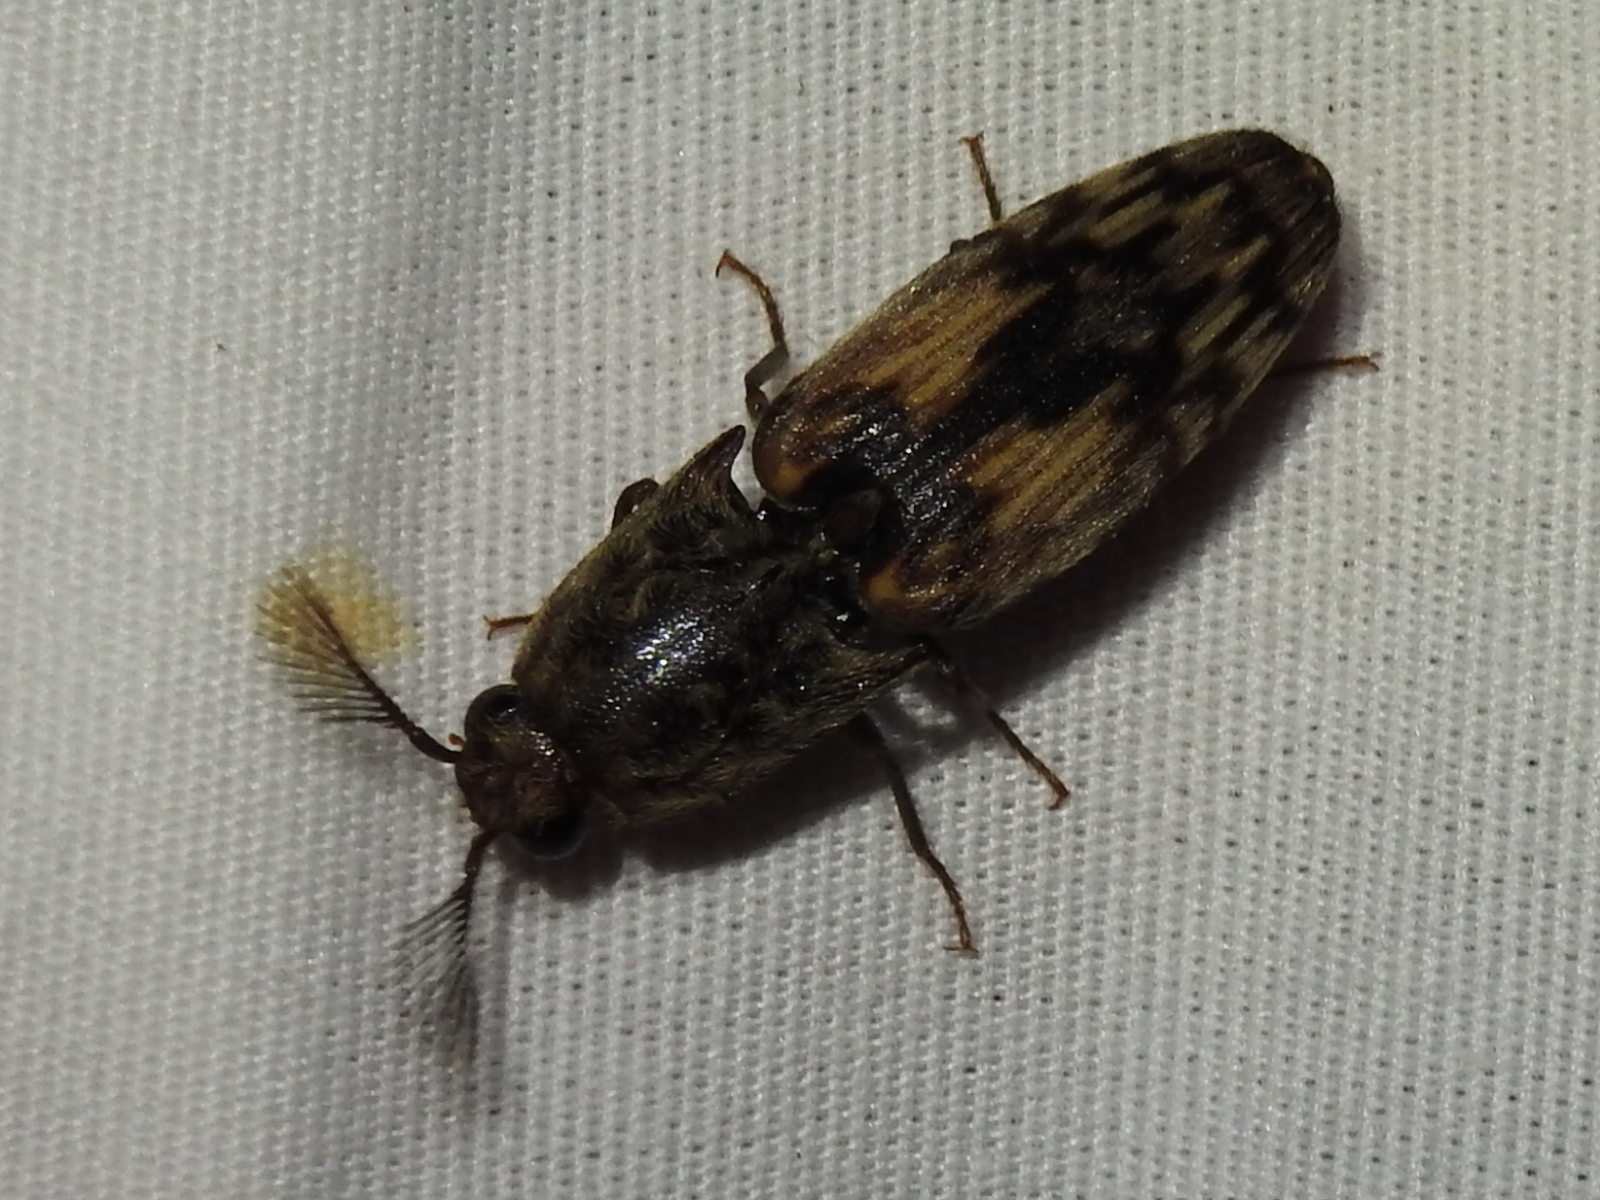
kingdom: Animalia
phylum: Arthropoda
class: Insecta
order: Coleoptera
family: Elateridae
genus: Pherhimius
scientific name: Pherhimius fascicularis
